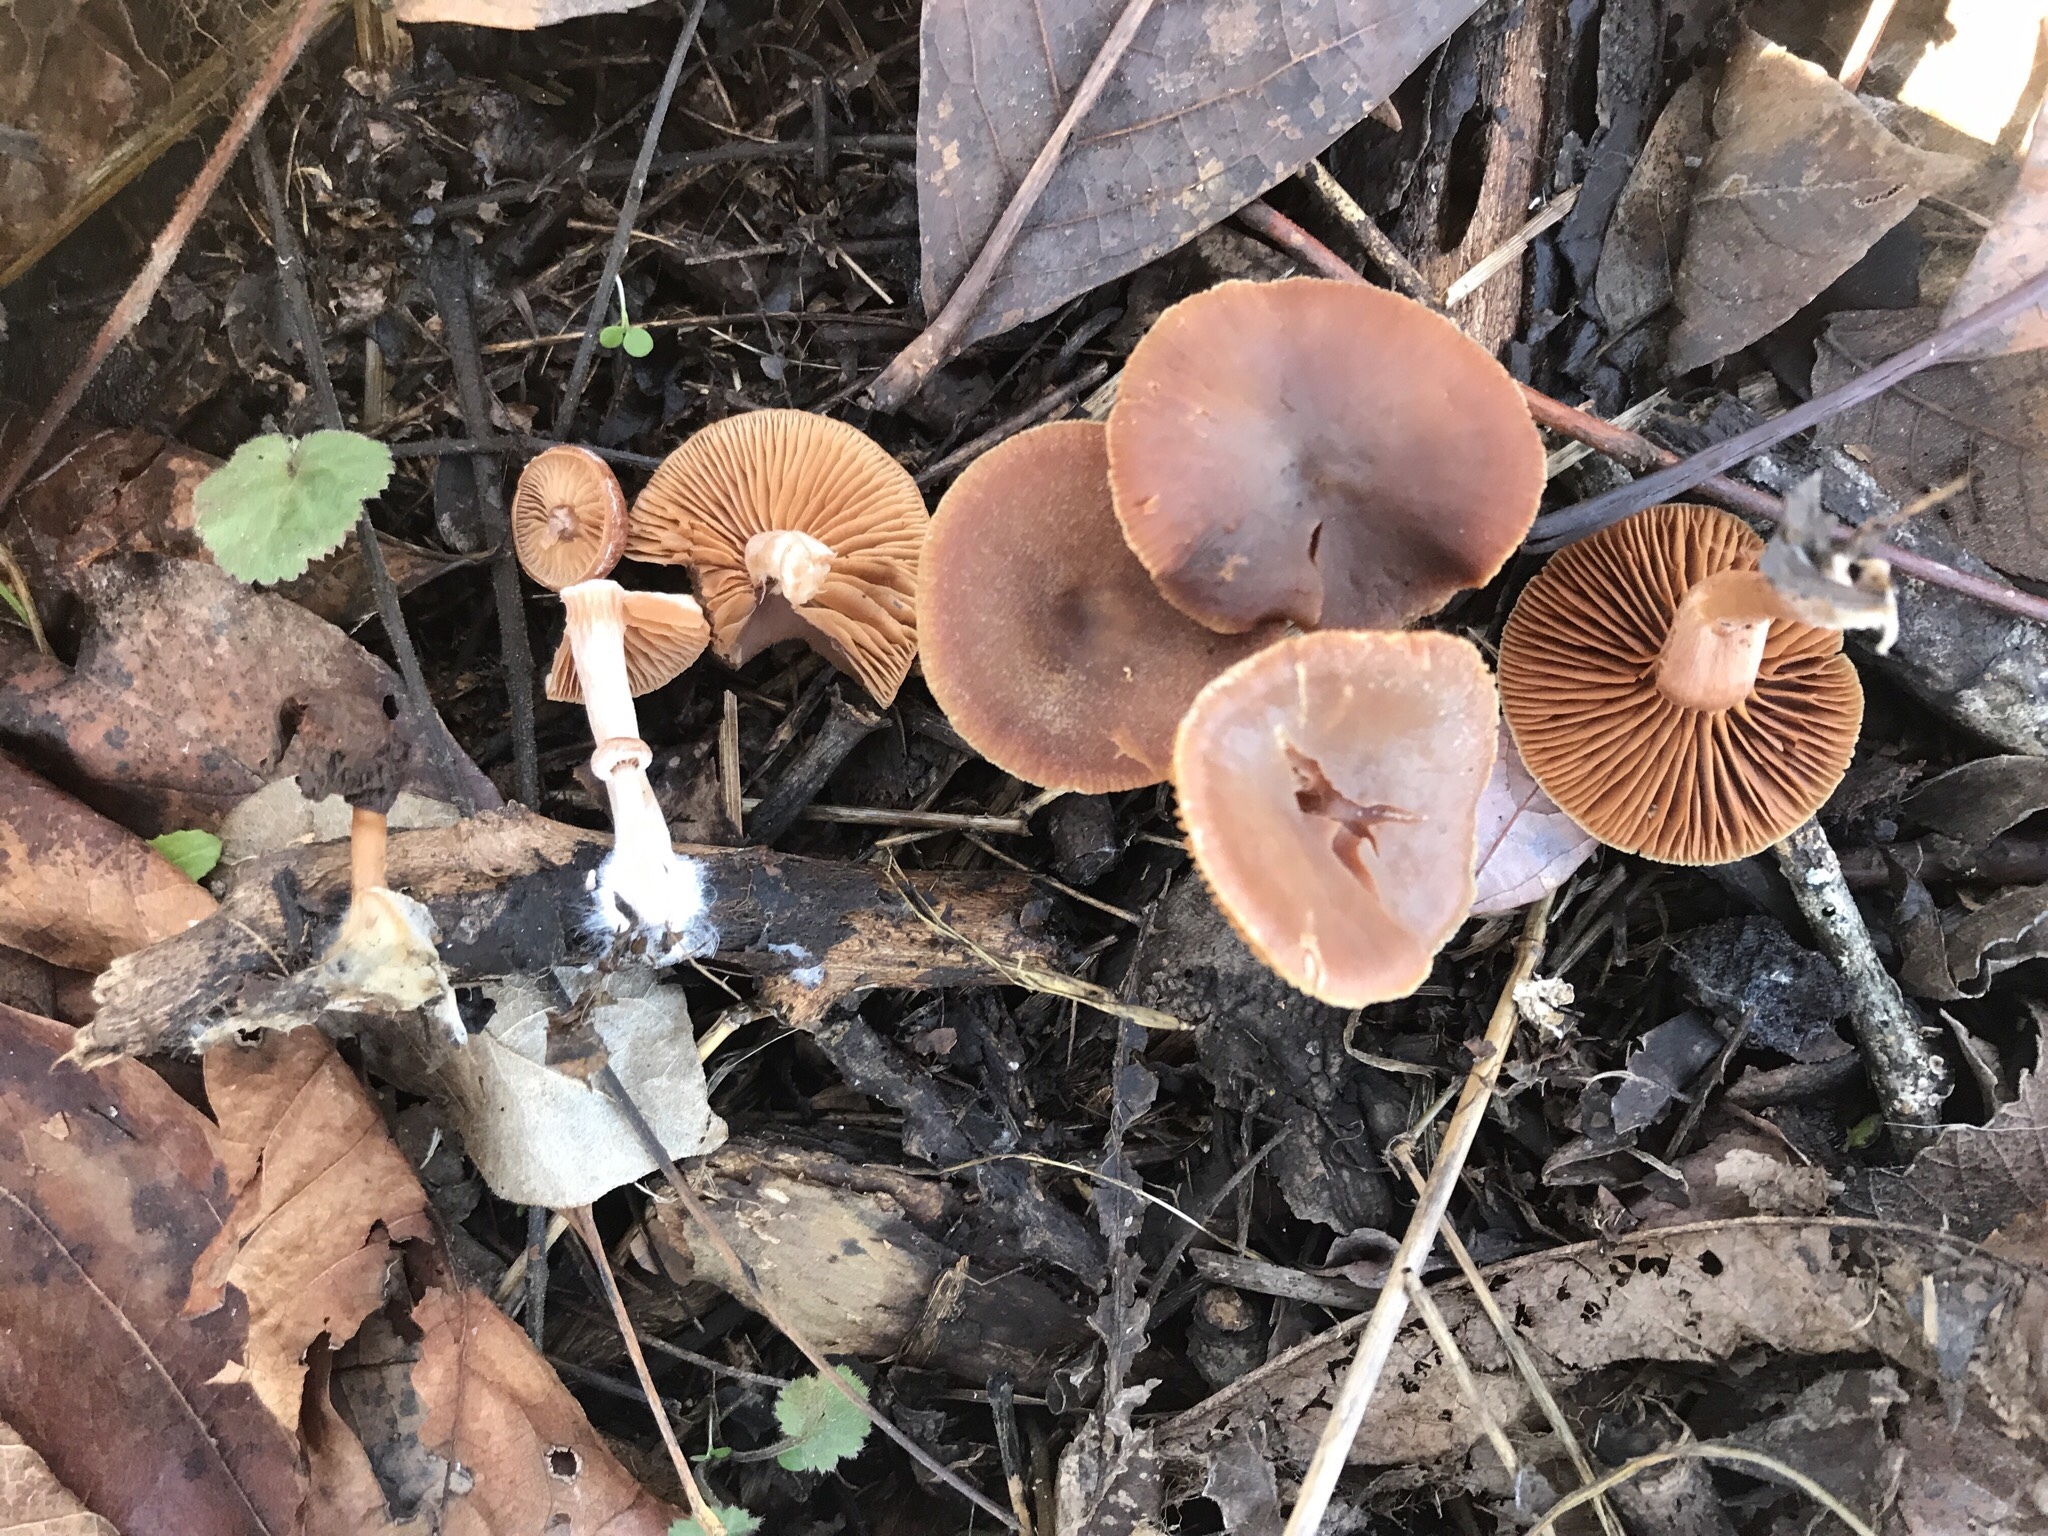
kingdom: Fungi
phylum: Basidiomycota
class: Agaricomycetes
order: Agaricales
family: Tubariaceae
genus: Tubaria
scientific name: Tubaria romagnesiana
